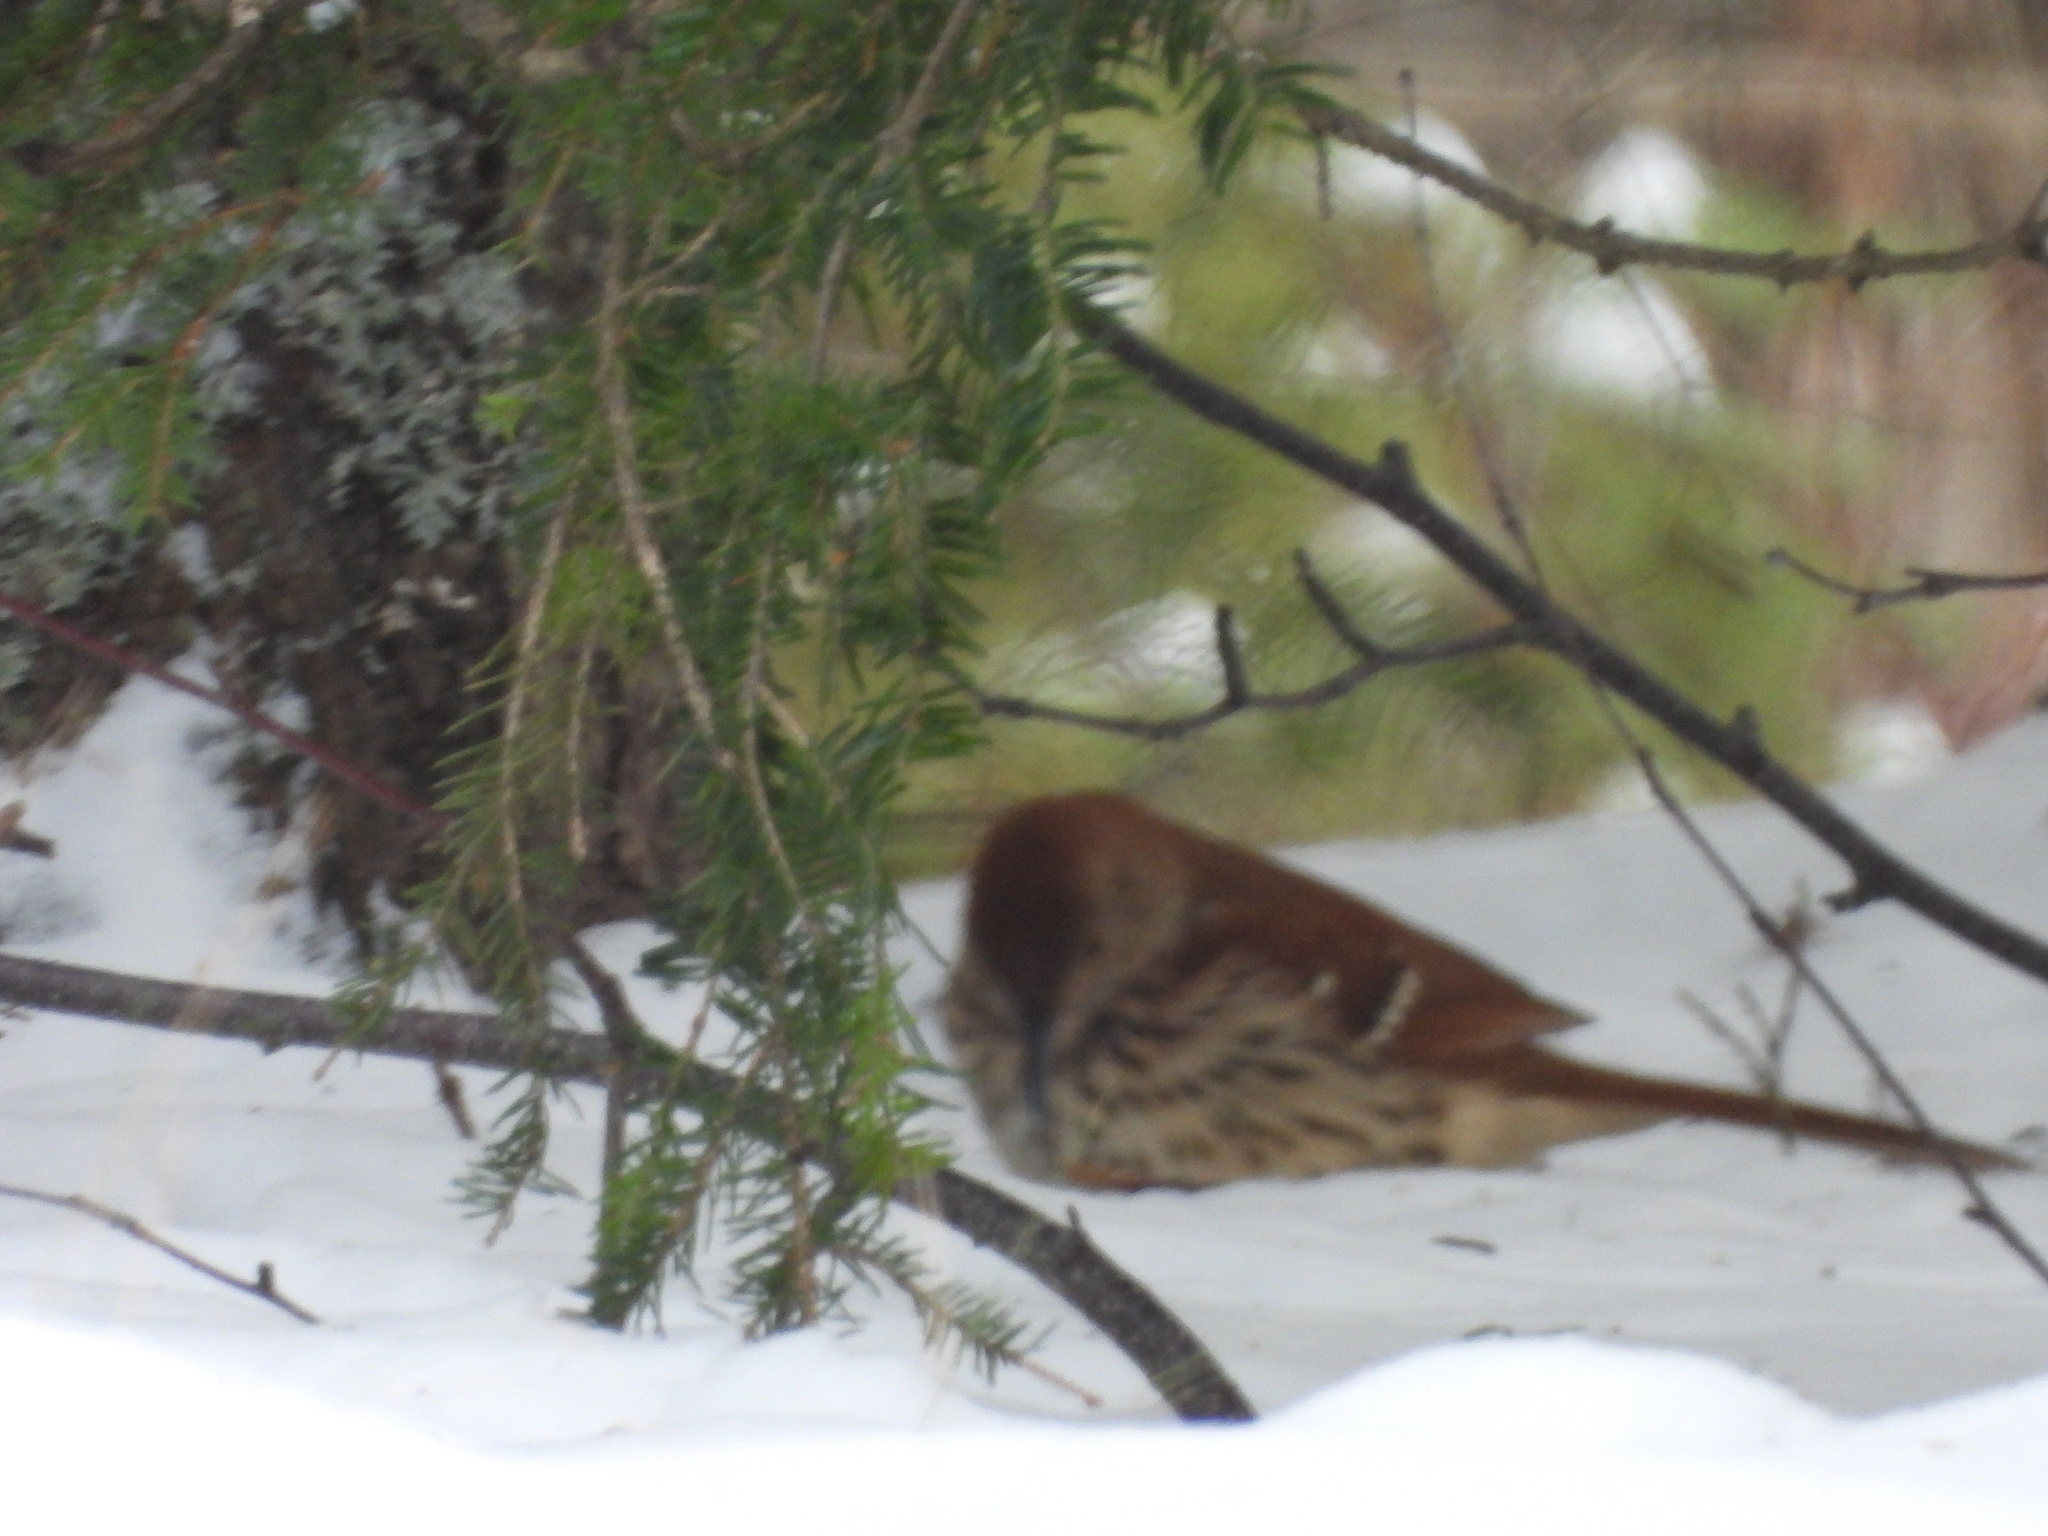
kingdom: Animalia
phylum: Chordata
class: Aves
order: Passeriformes
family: Mimidae
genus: Toxostoma
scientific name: Toxostoma rufum
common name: Brown thrasher
